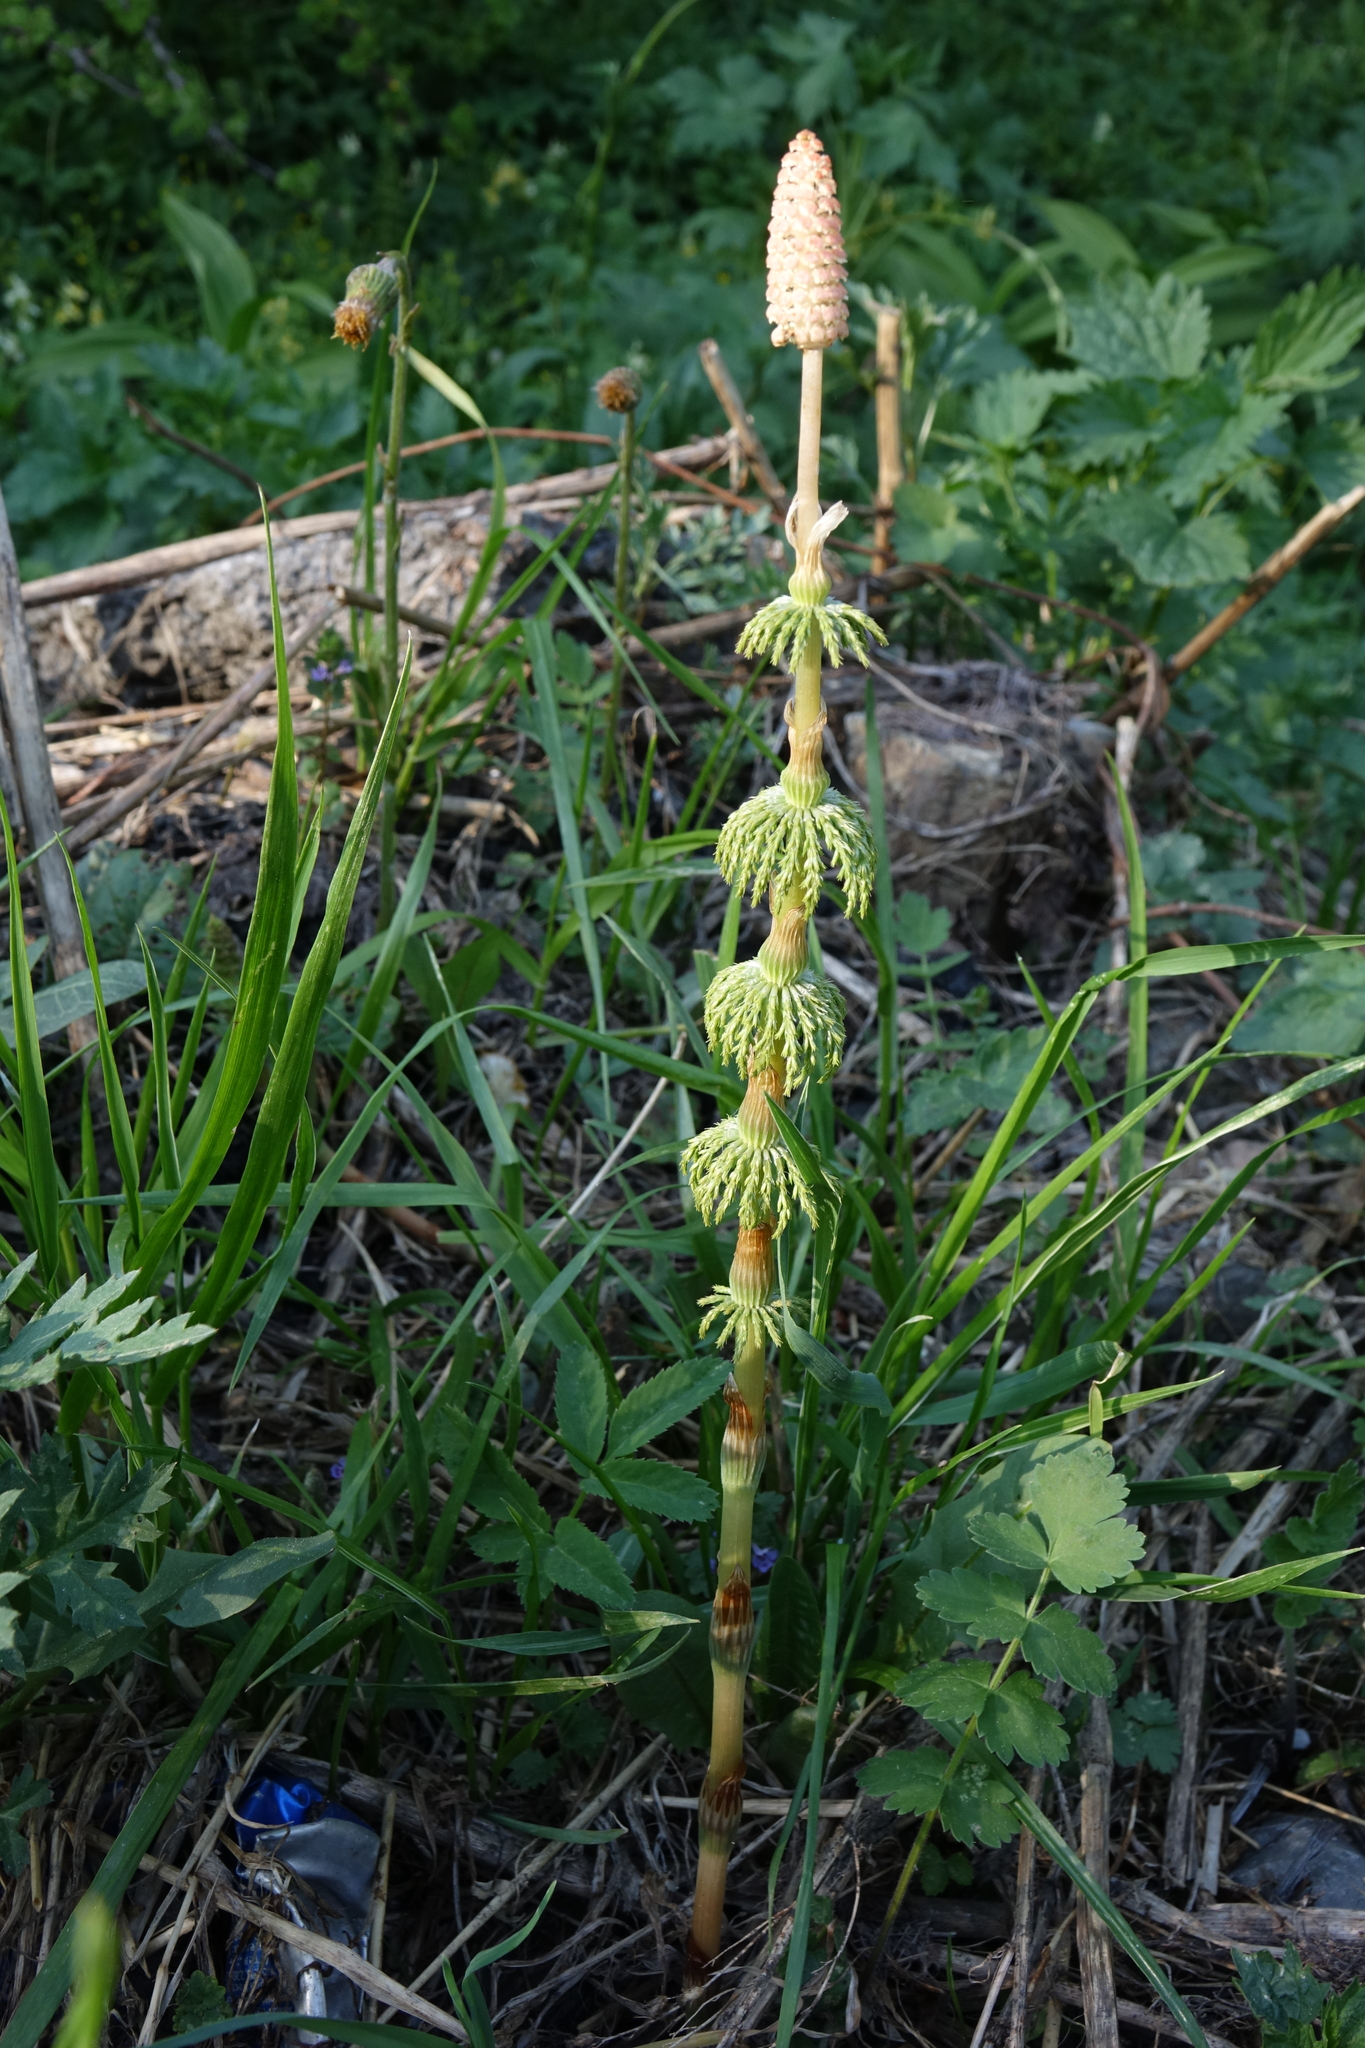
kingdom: Plantae
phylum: Tracheophyta
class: Polypodiopsida
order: Equisetales
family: Equisetaceae
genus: Equisetum
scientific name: Equisetum sylvaticum
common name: Wood horsetail
